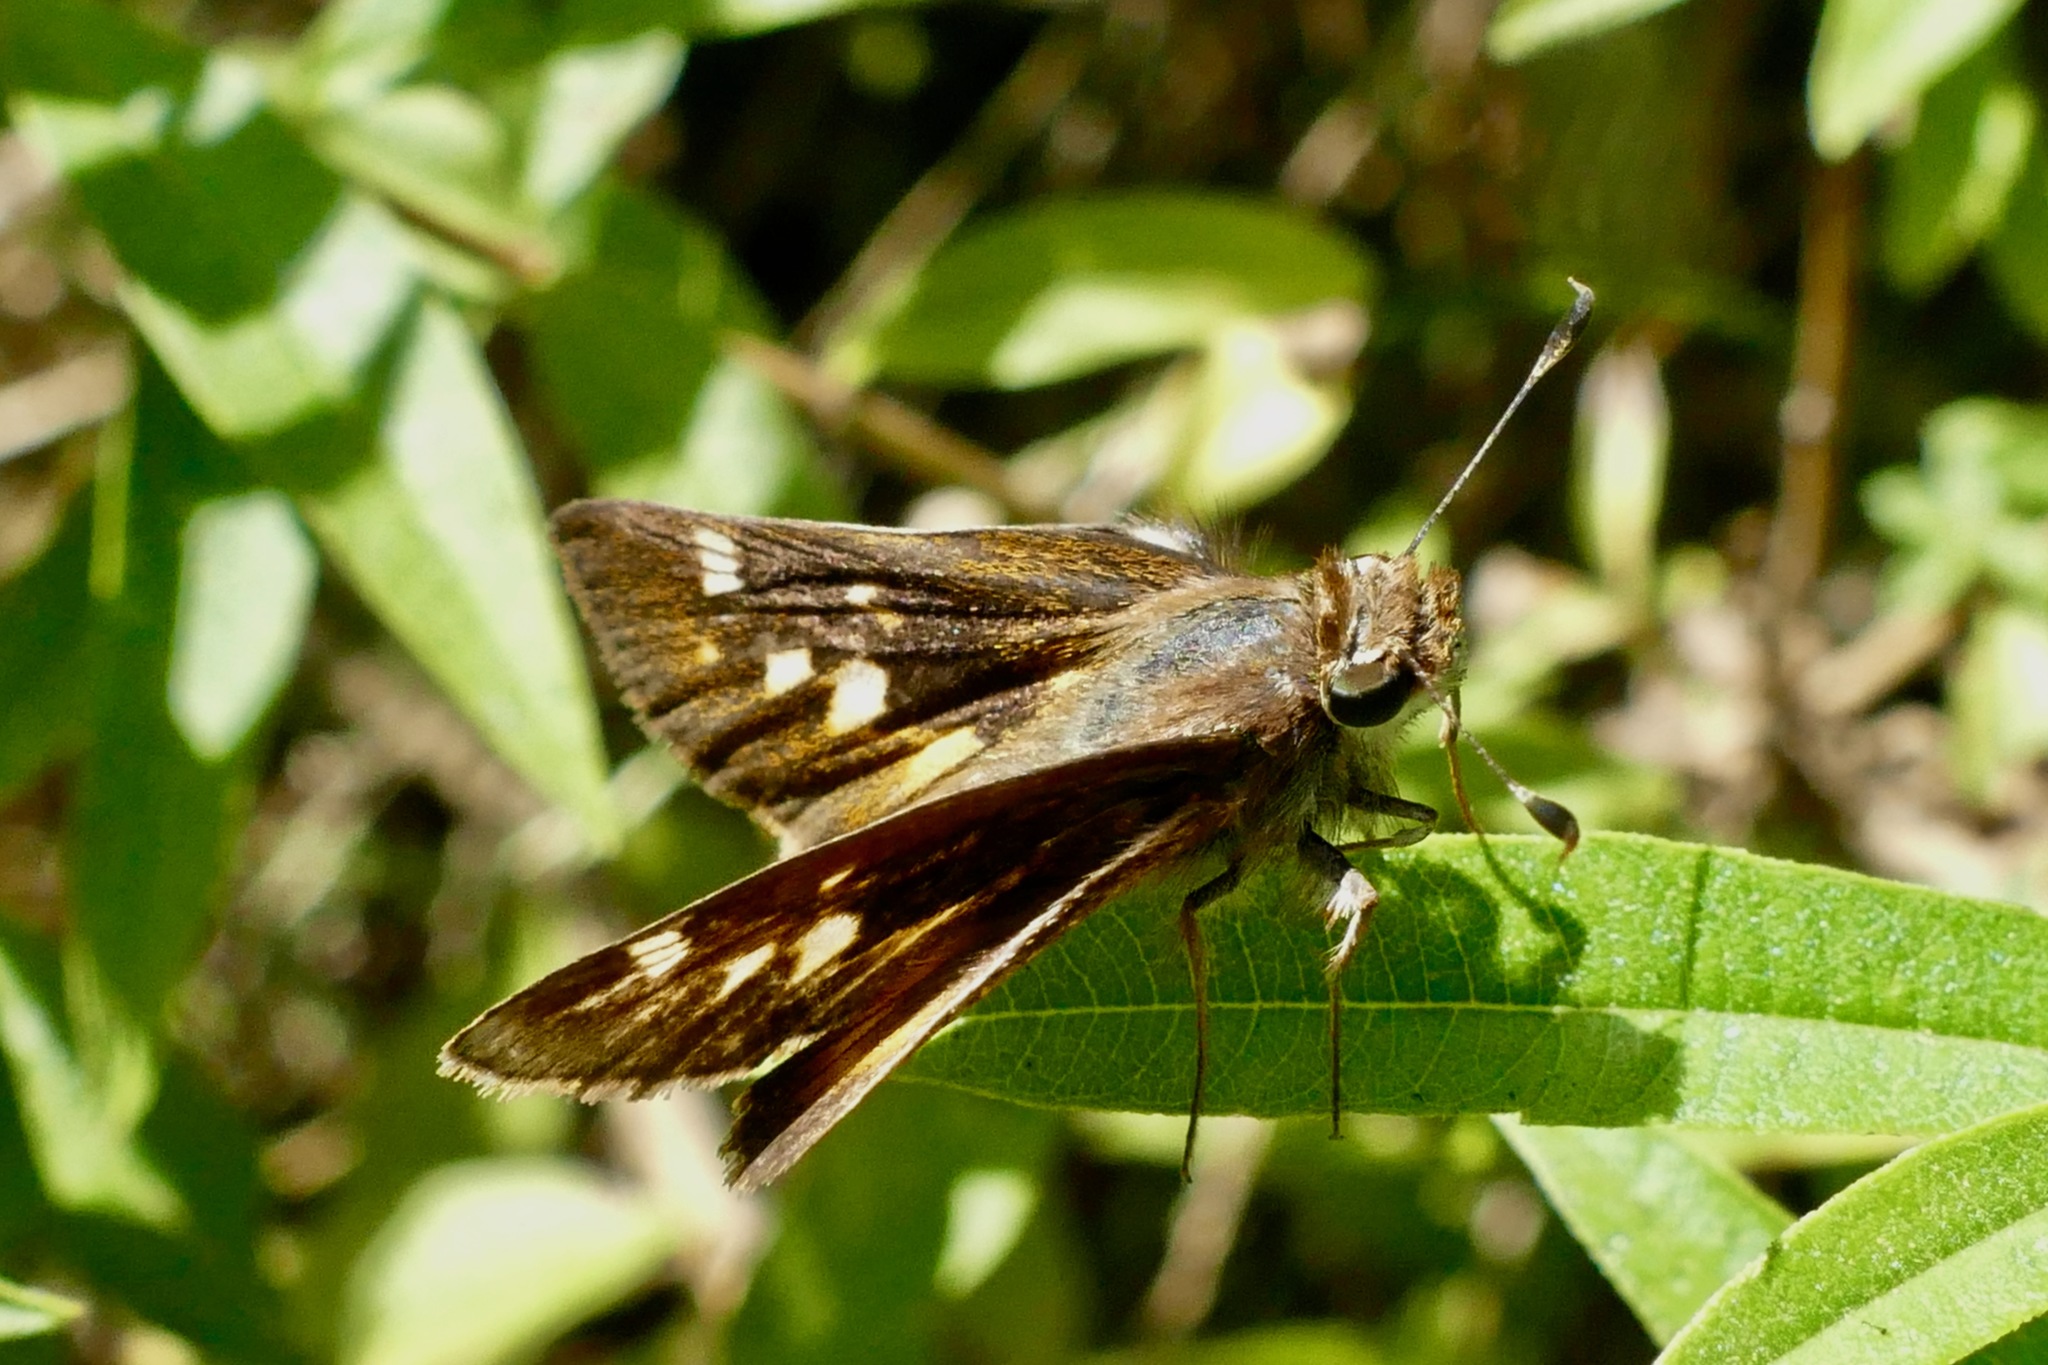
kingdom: Animalia
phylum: Arthropoda
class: Insecta
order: Lepidoptera
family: Hesperiidae
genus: Lon
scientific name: Lon melane
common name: Umber skipper
